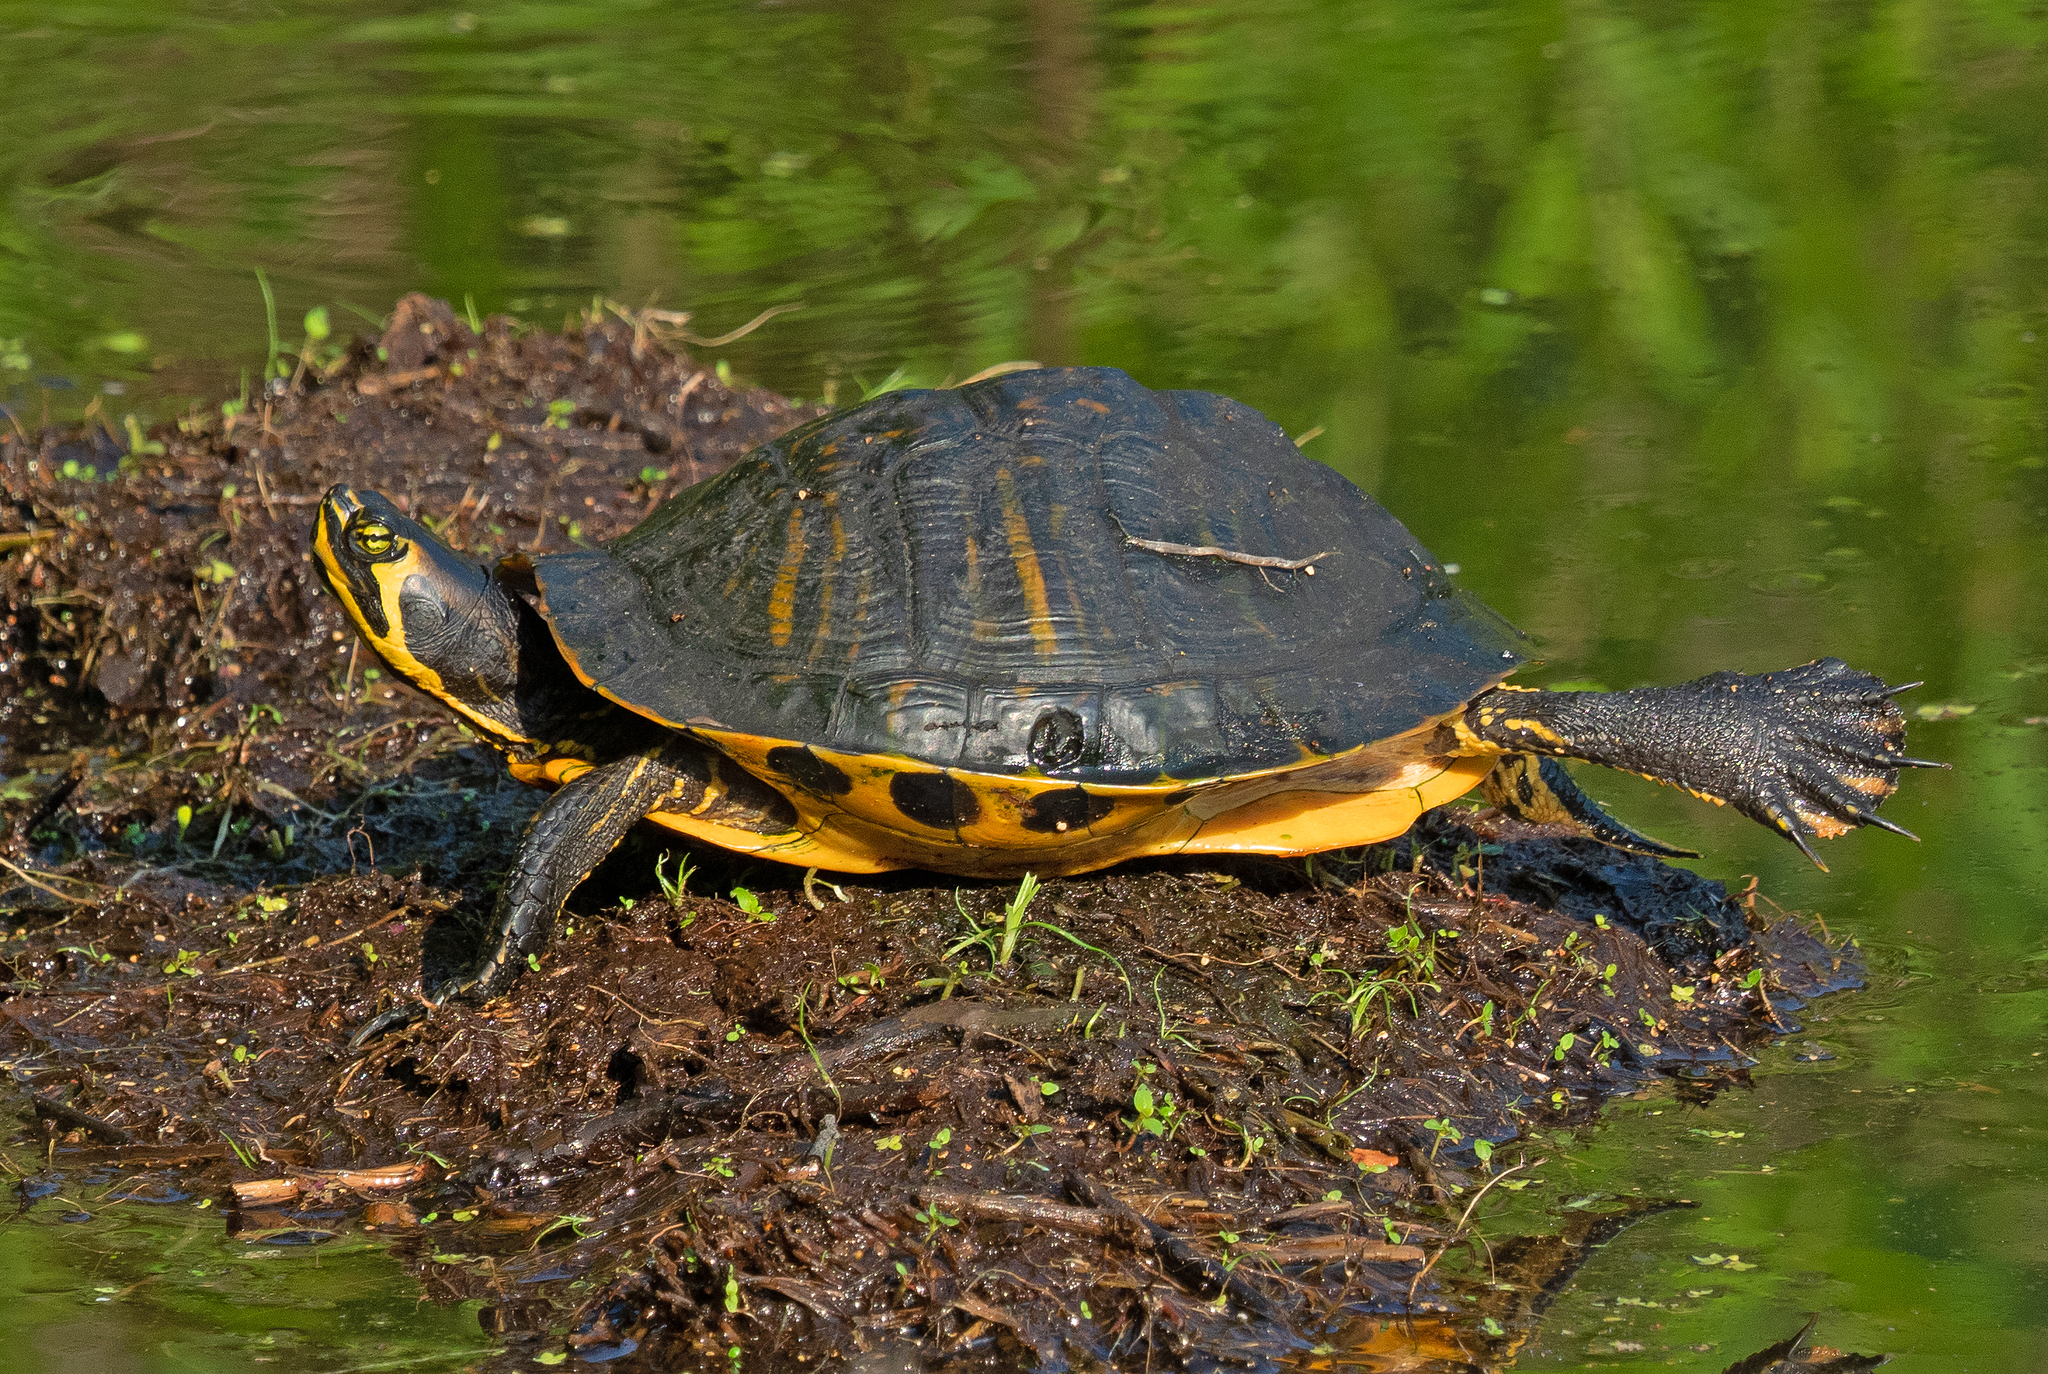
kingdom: Animalia
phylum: Chordata
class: Testudines
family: Emydidae
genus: Trachemys
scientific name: Trachemys scripta
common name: Slider
